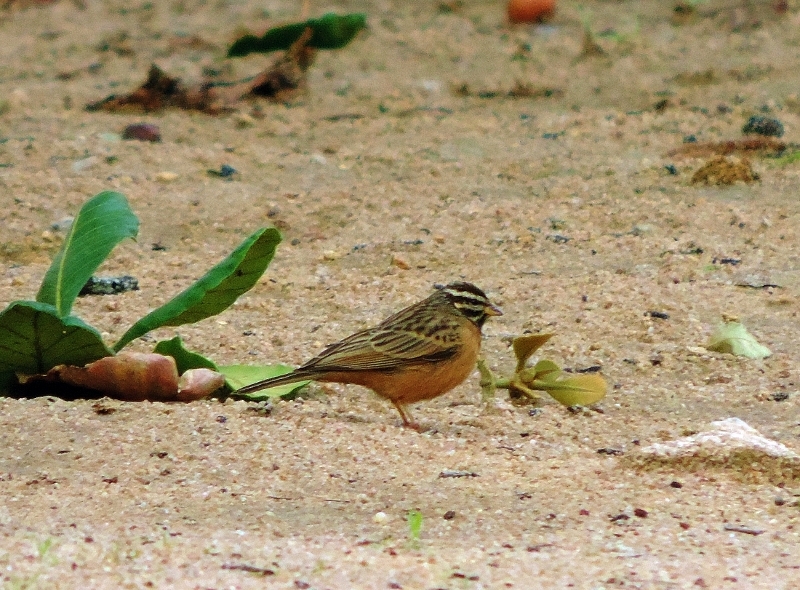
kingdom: Animalia
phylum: Chordata
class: Aves
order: Passeriformes
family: Emberizidae
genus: Emberiza
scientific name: Emberiza tahapisi
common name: Cinnamon-breasted bunting
